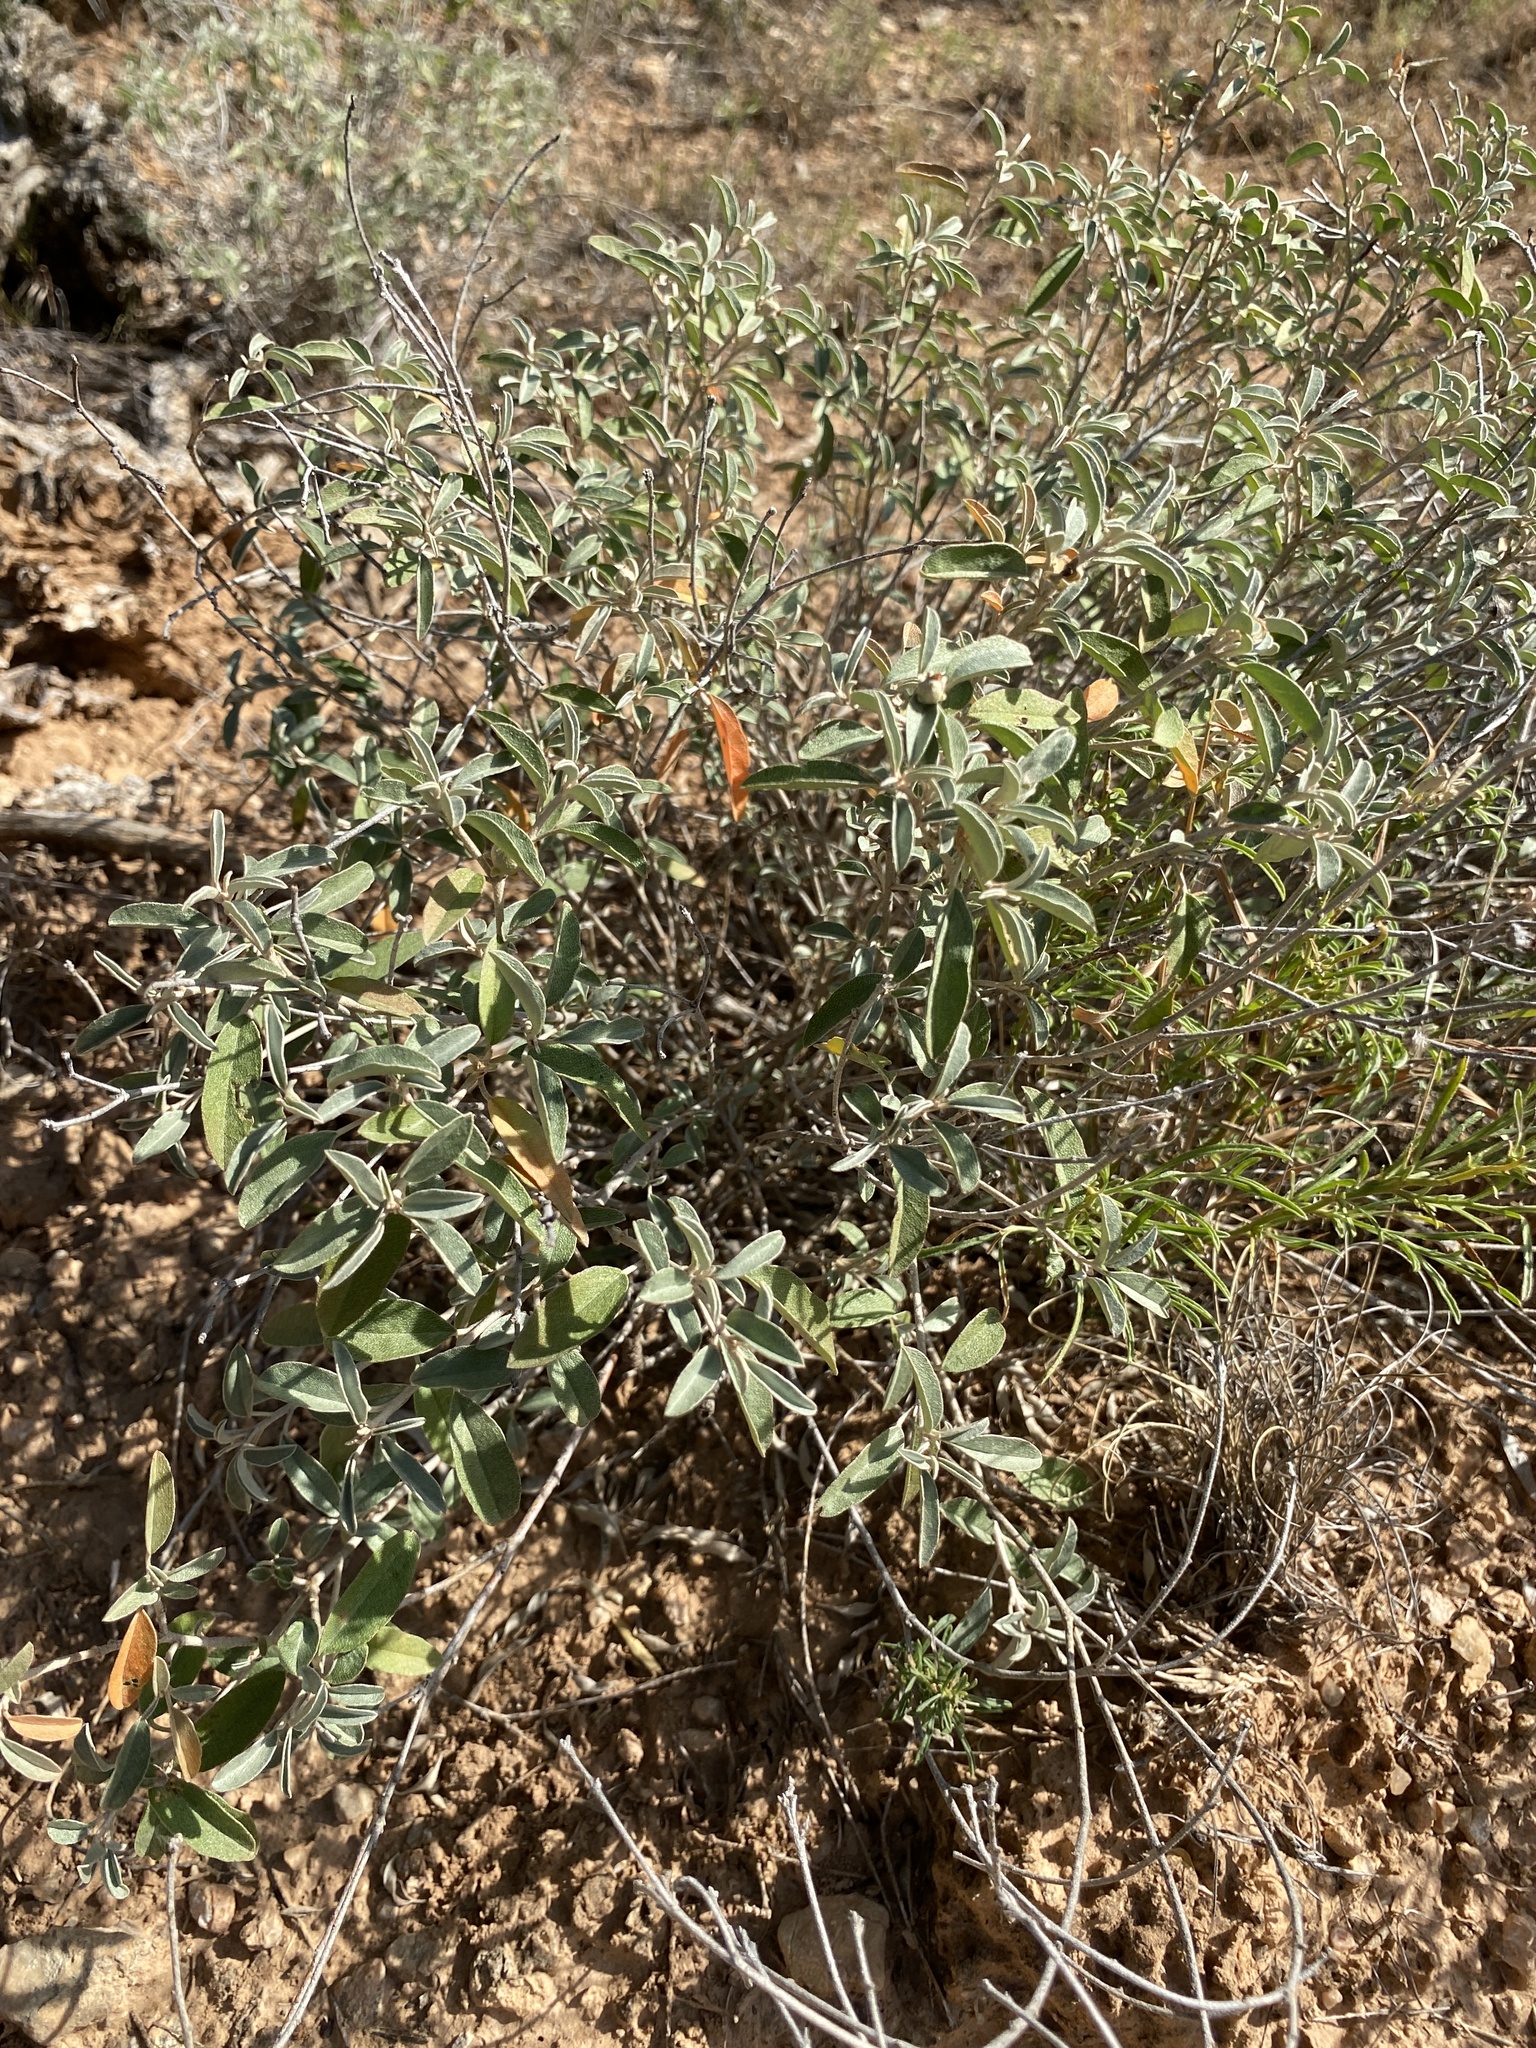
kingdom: Plantae
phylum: Tracheophyta
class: Magnoliopsida
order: Malpighiales
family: Euphorbiaceae
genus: Croton
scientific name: Croton dioicus
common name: Grassland croton
